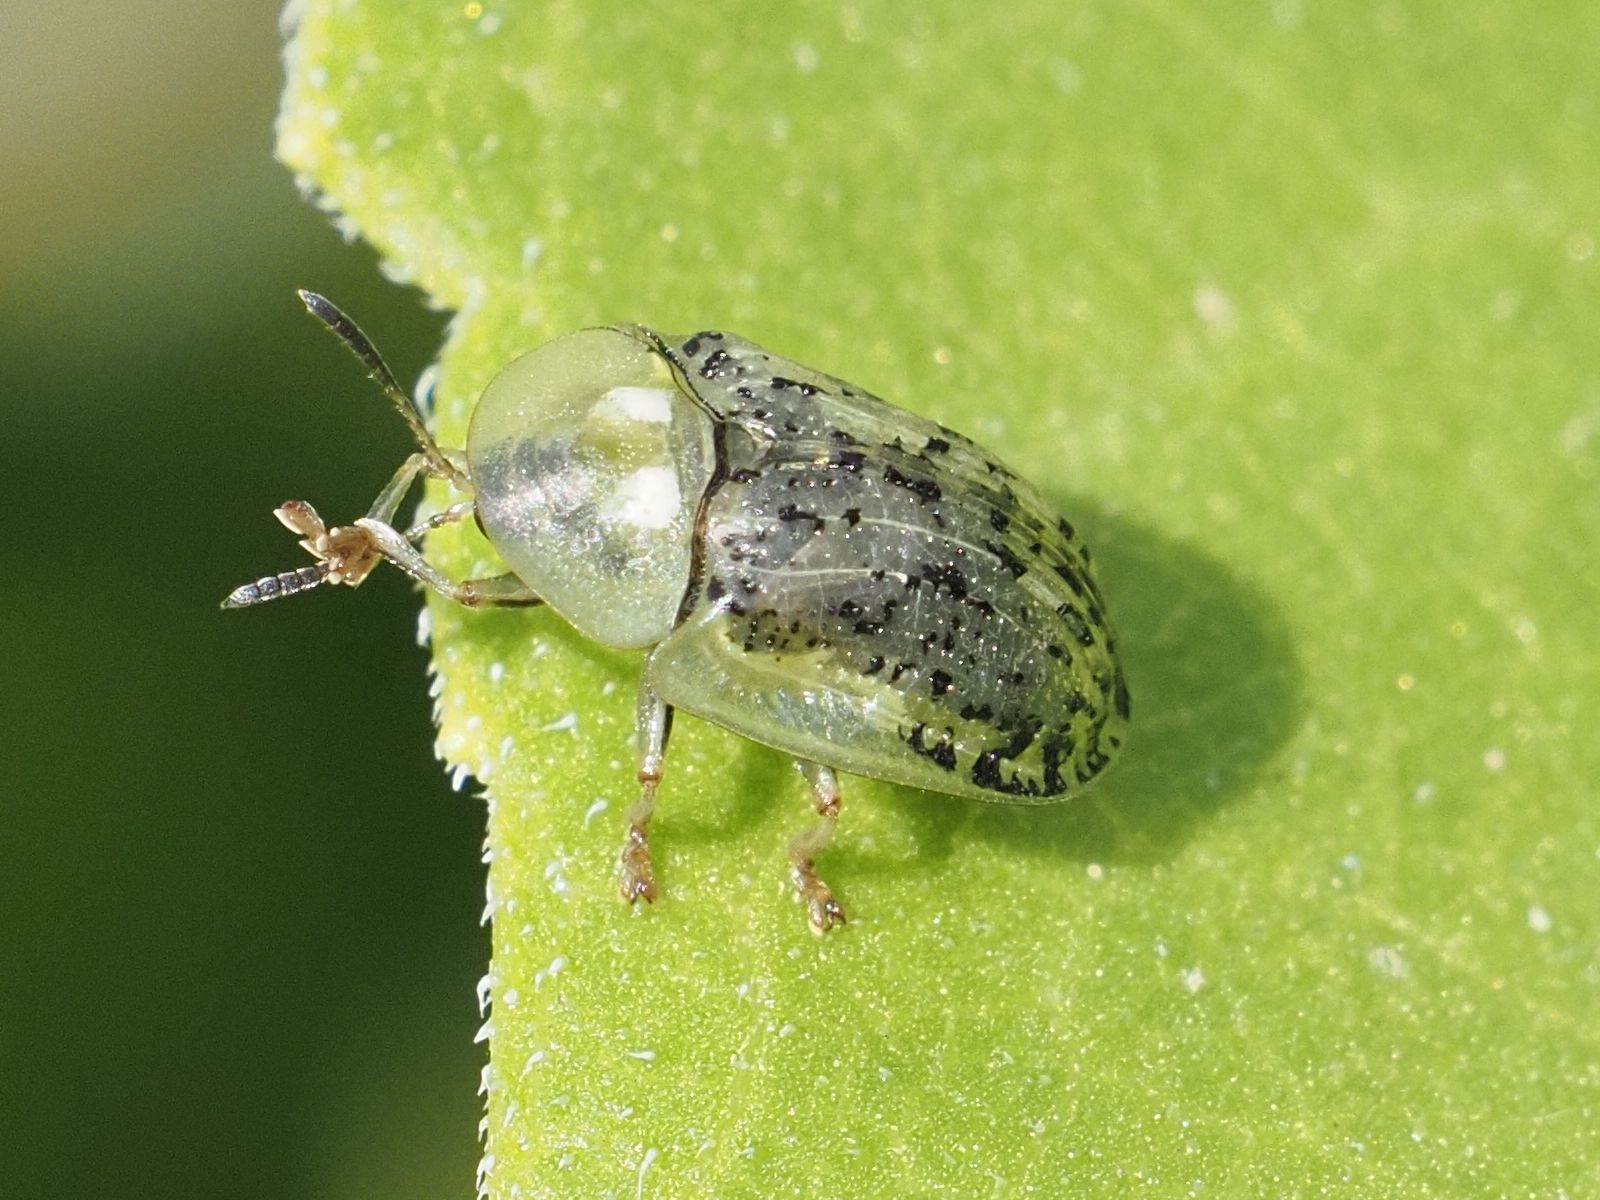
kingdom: Animalia
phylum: Arthropoda
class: Insecta
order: Coleoptera
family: Chrysomelidae
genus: Cassida
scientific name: Cassida nebulosa
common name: Beet tortoise beetle
